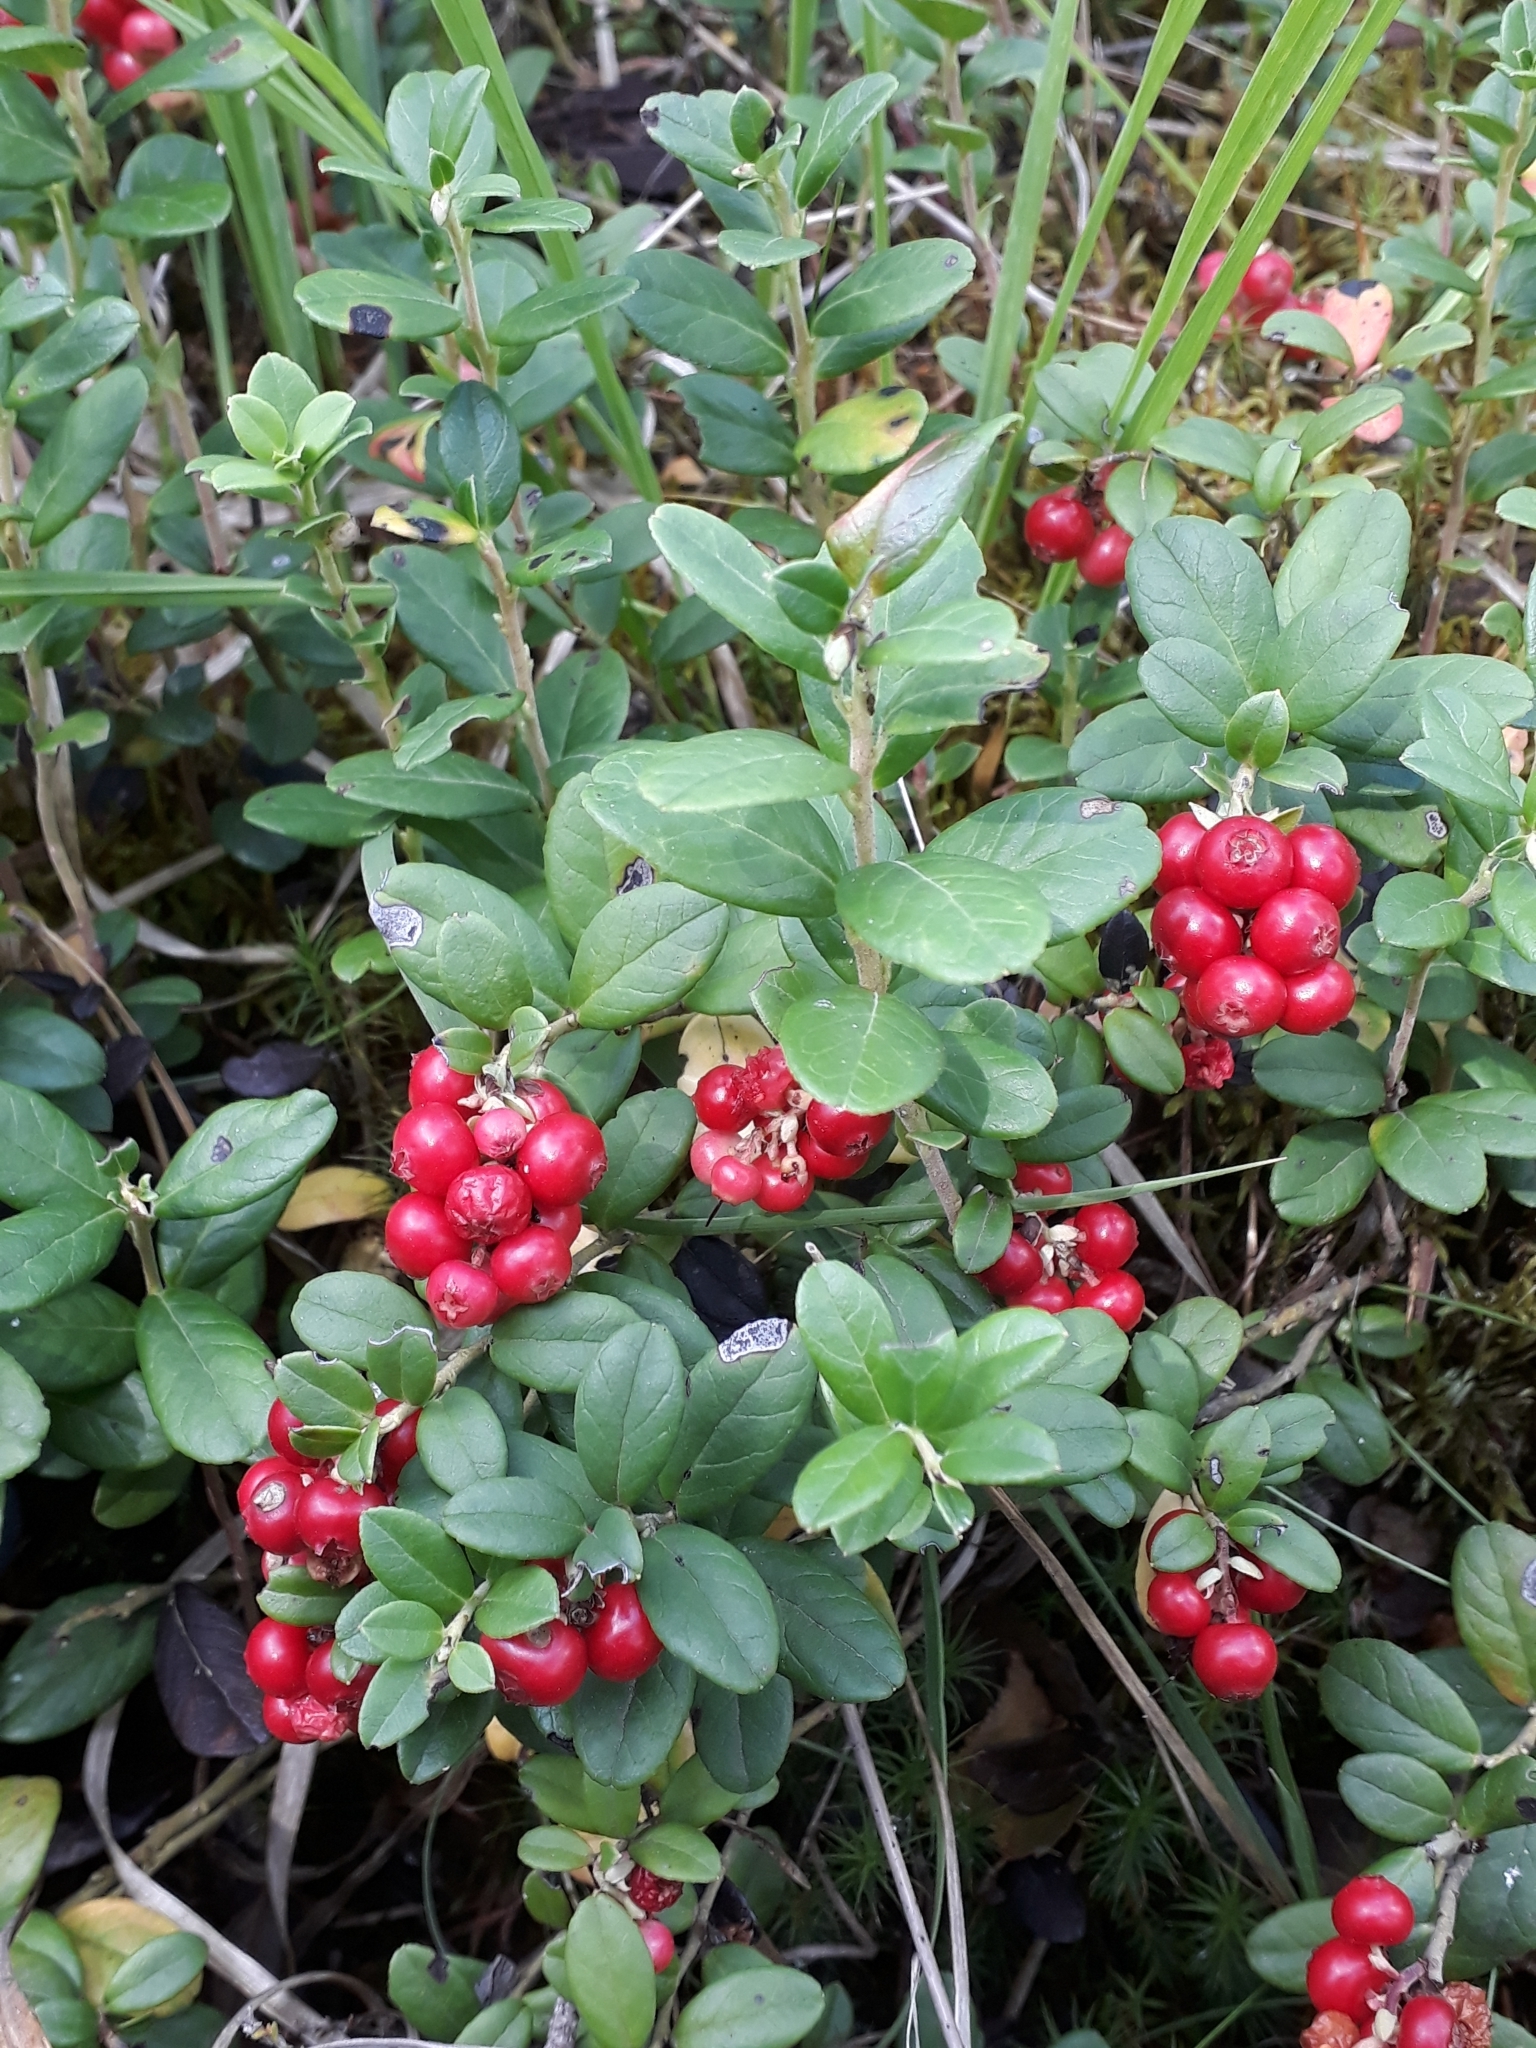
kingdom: Plantae
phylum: Tracheophyta
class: Magnoliopsida
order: Ericales
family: Ericaceae
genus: Vaccinium
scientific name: Vaccinium vitis-idaea
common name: Cowberry
